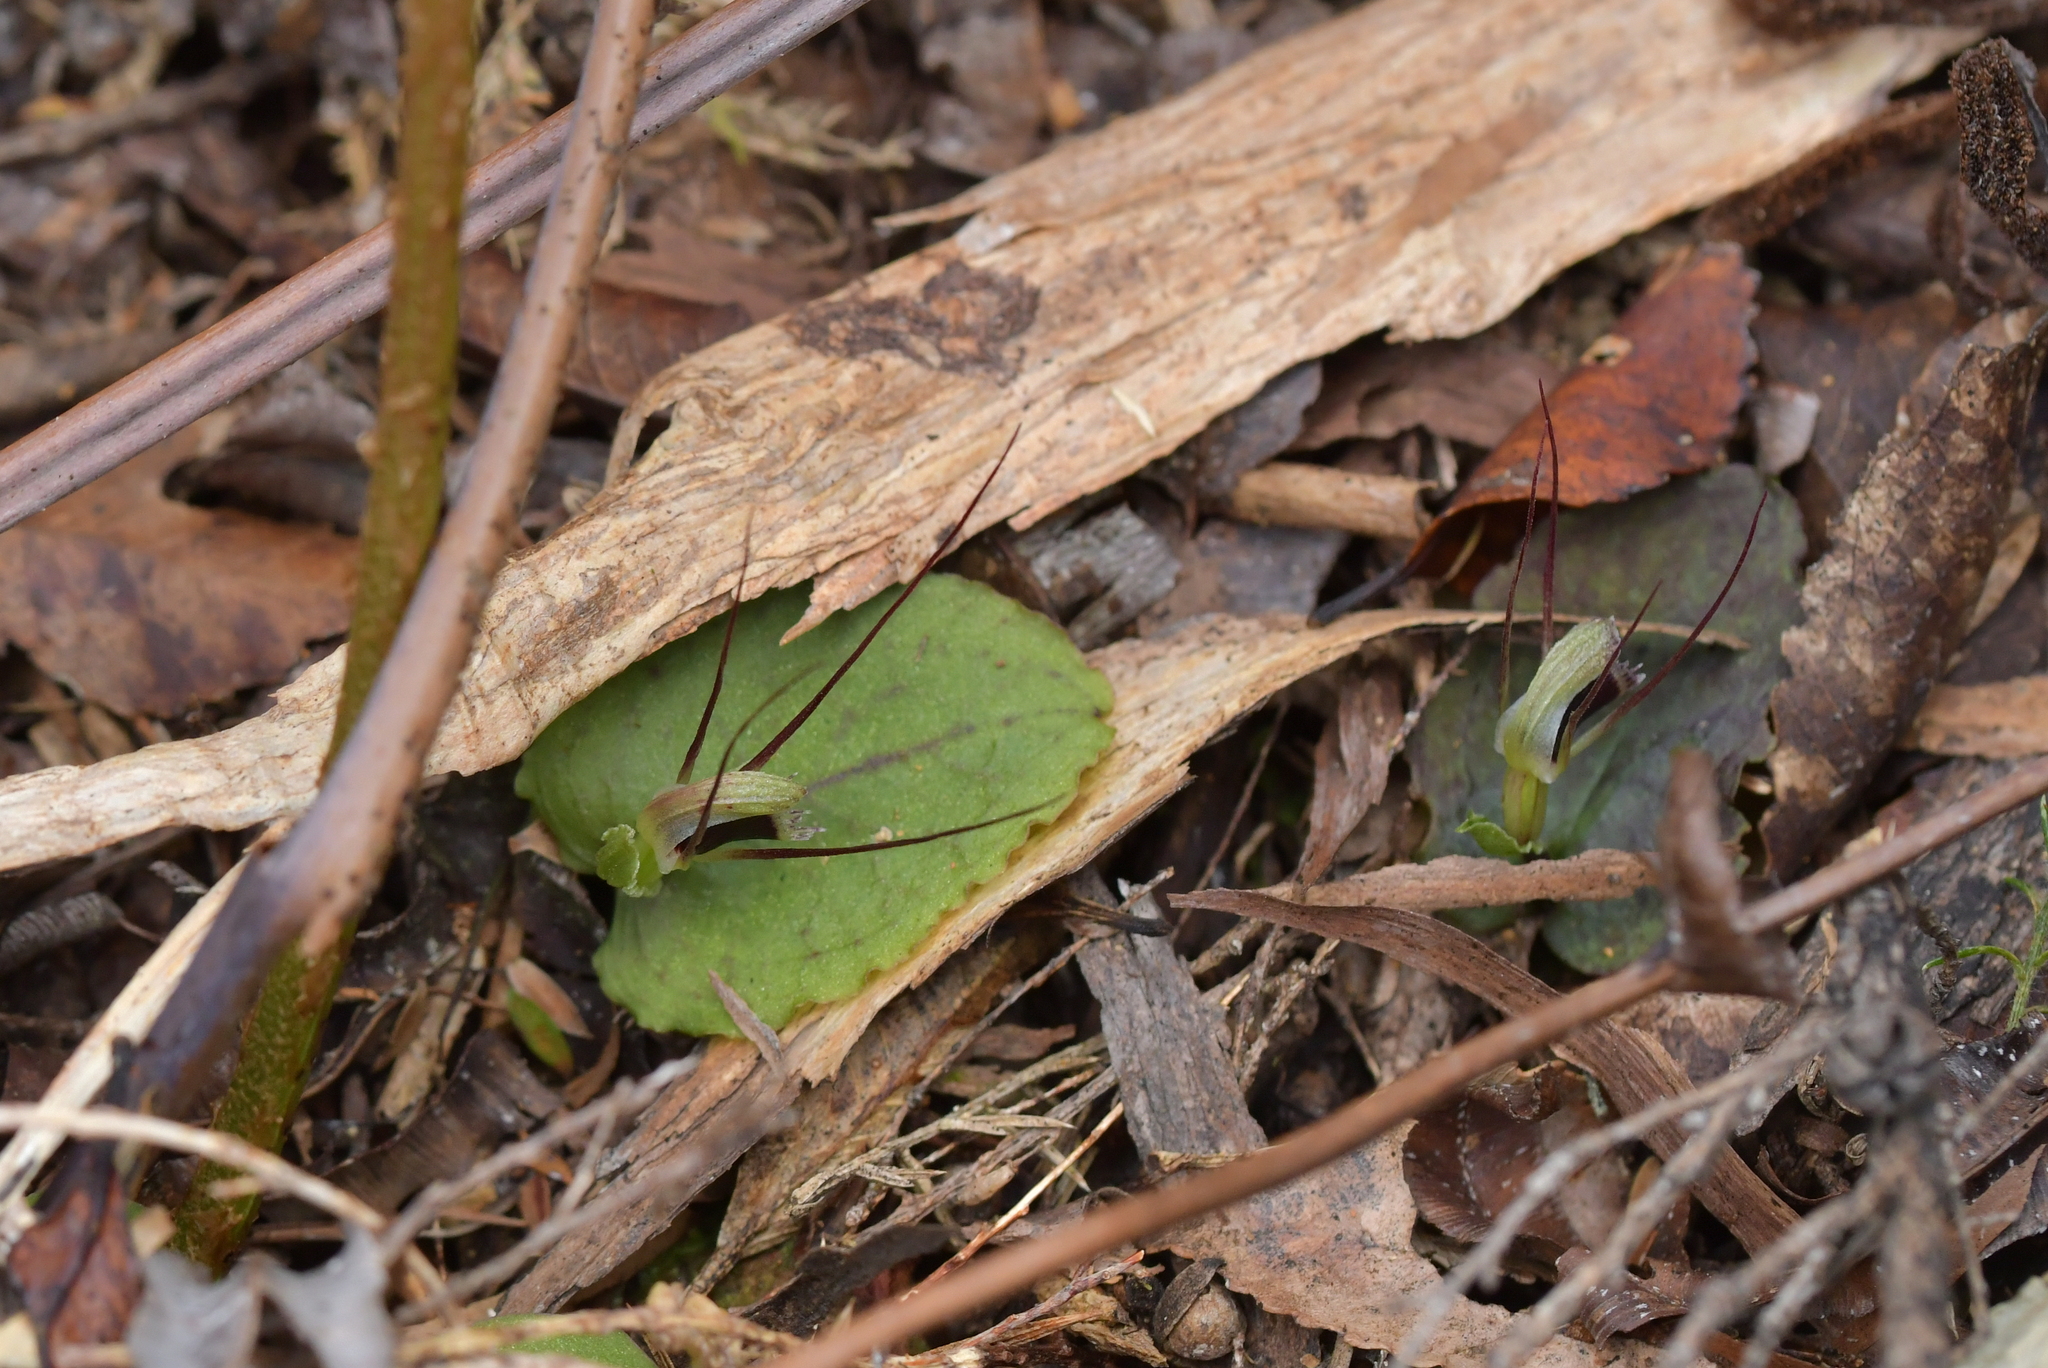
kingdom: Plantae
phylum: Tracheophyta
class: Liliopsida
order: Asparagales
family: Orchidaceae
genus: Corybas
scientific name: Corybas oblongus
